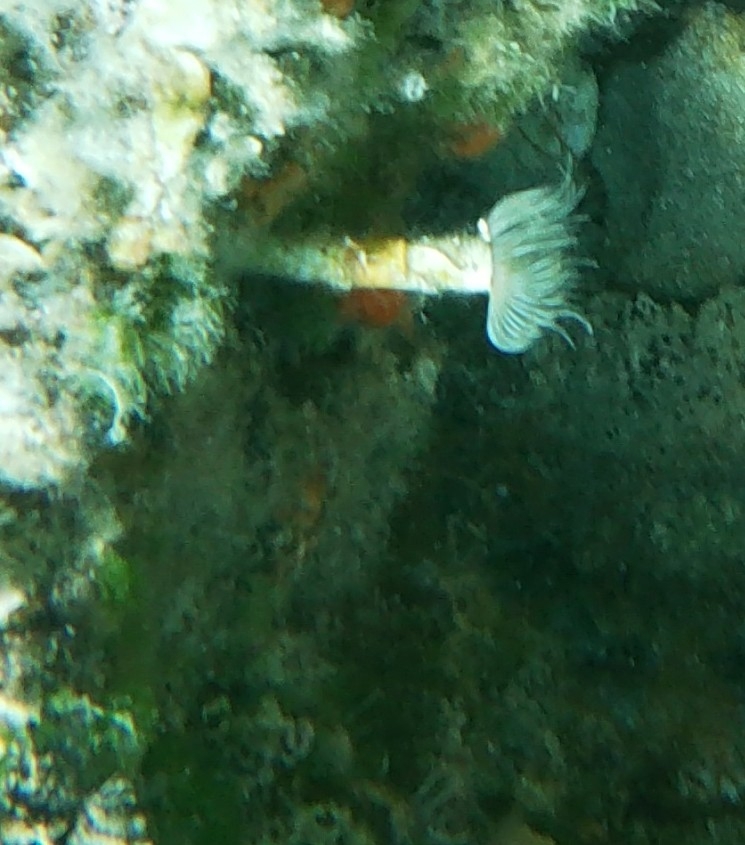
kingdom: Animalia
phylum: Annelida
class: Polychaeta
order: Sabellida
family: Serpulidae
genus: Protula
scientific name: Protula tubularia
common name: Red-spotted horseshoe
